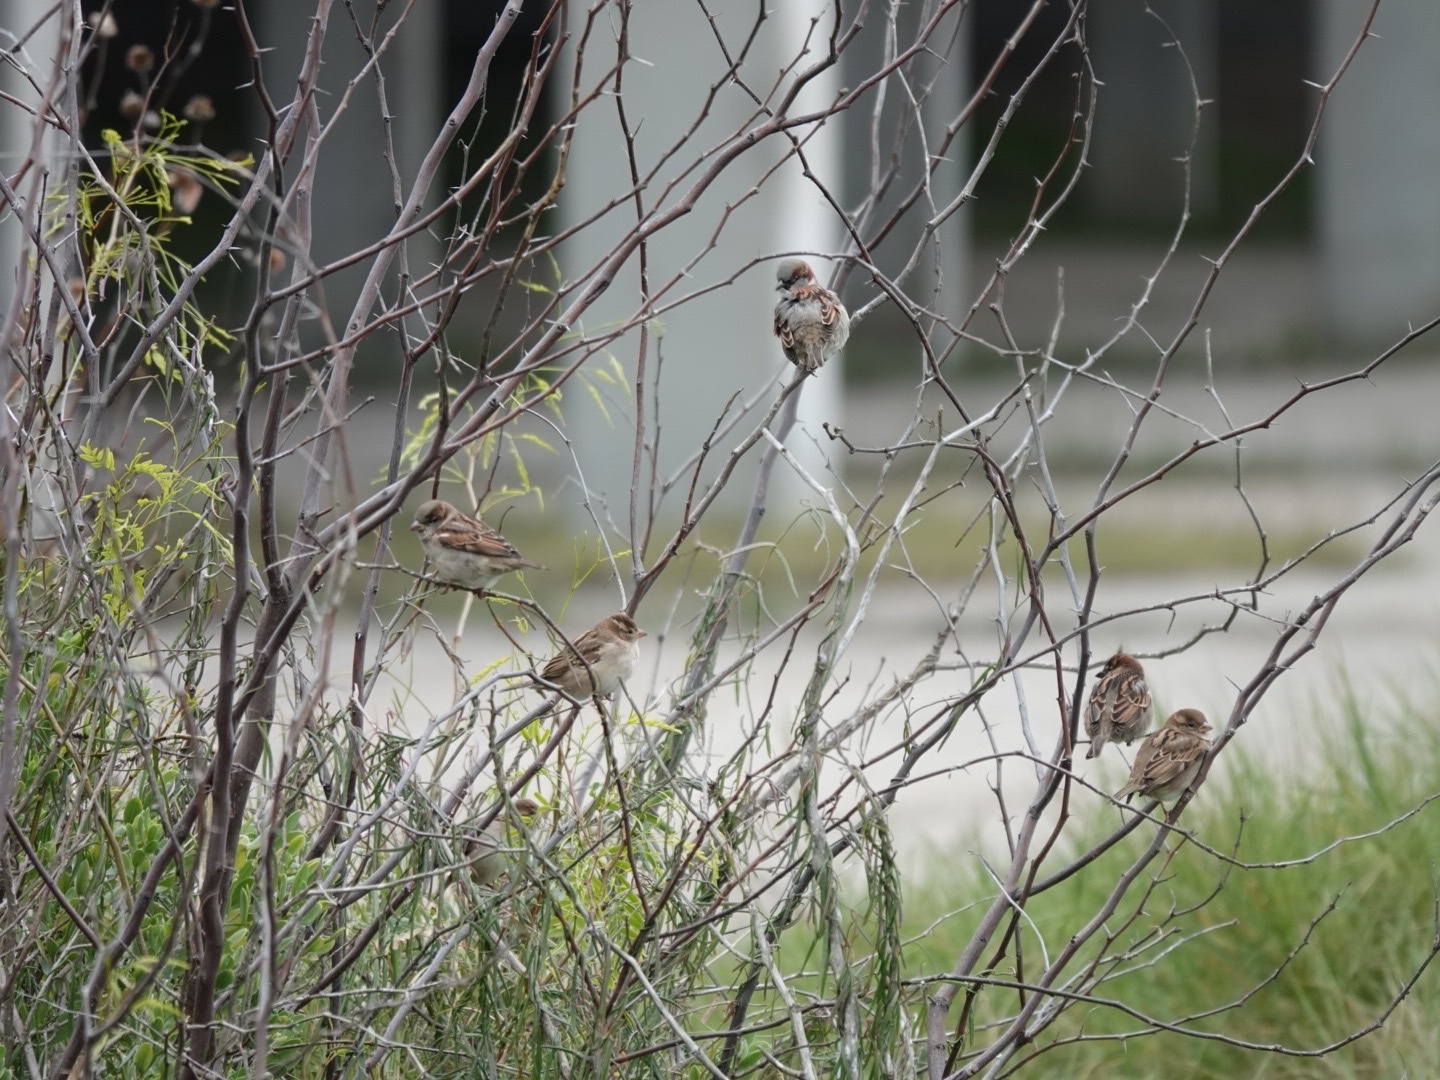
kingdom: Animalia
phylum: Chordata
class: Aves
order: Passeriformes
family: Passeridae
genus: Passer
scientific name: Passer domesticus
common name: House sparrow
